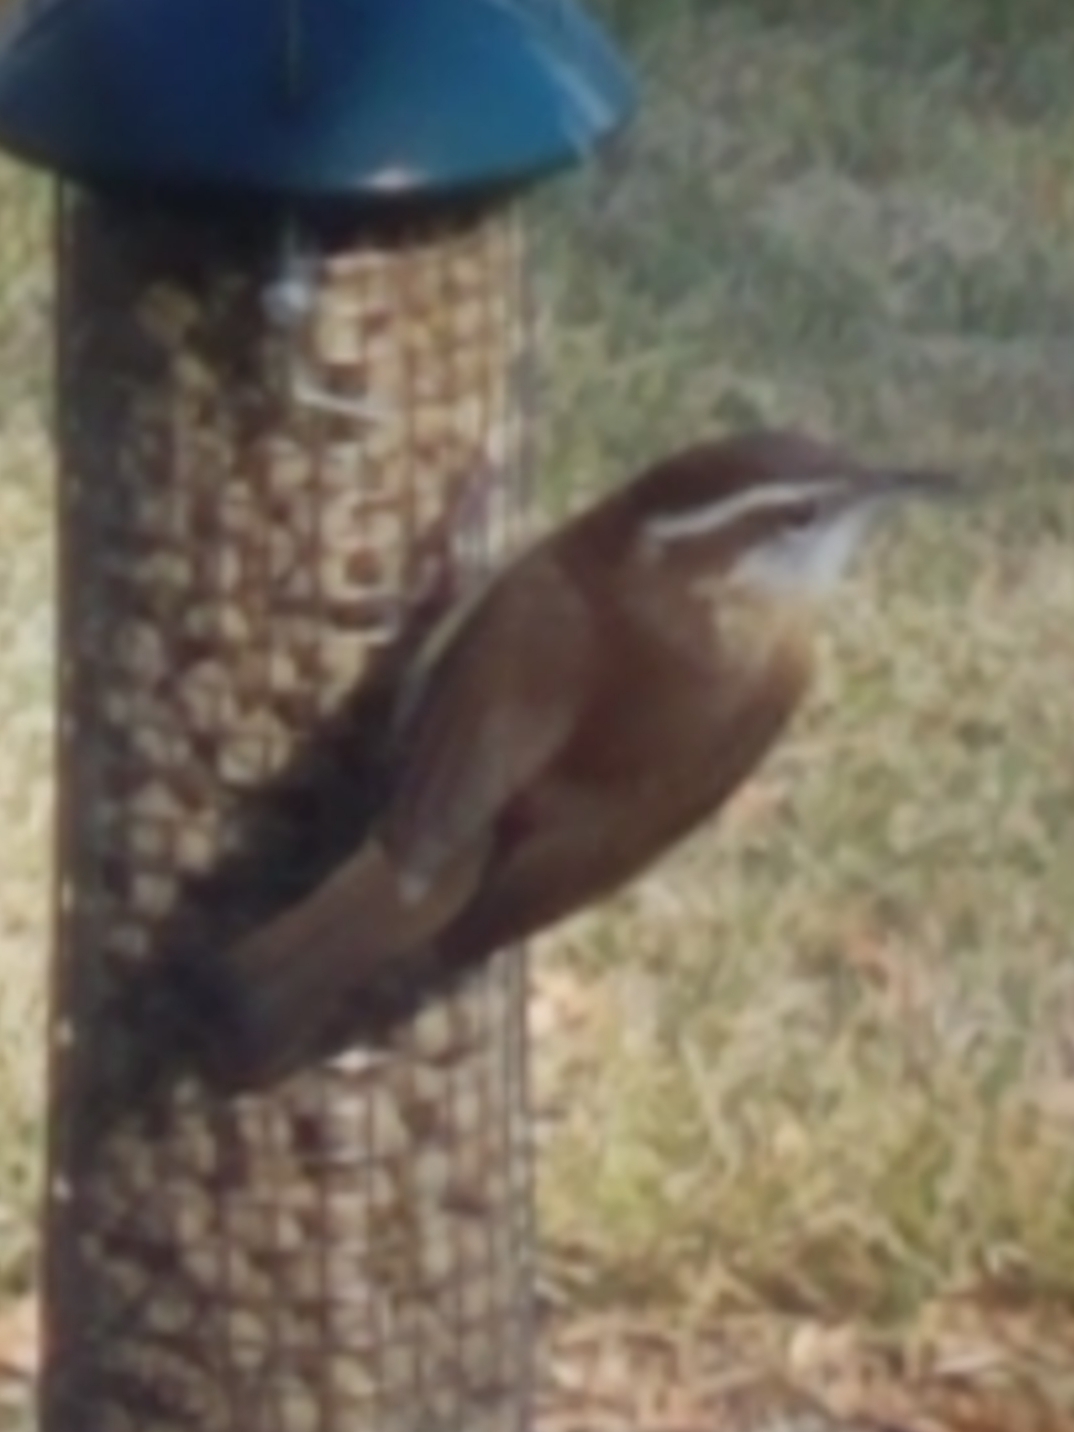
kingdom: Animalia
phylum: Chordata
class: Aves
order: Passeriformes
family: Troglodytidae
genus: Thryothorus
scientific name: Thryothorus ludovicianus
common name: Carolina wren
